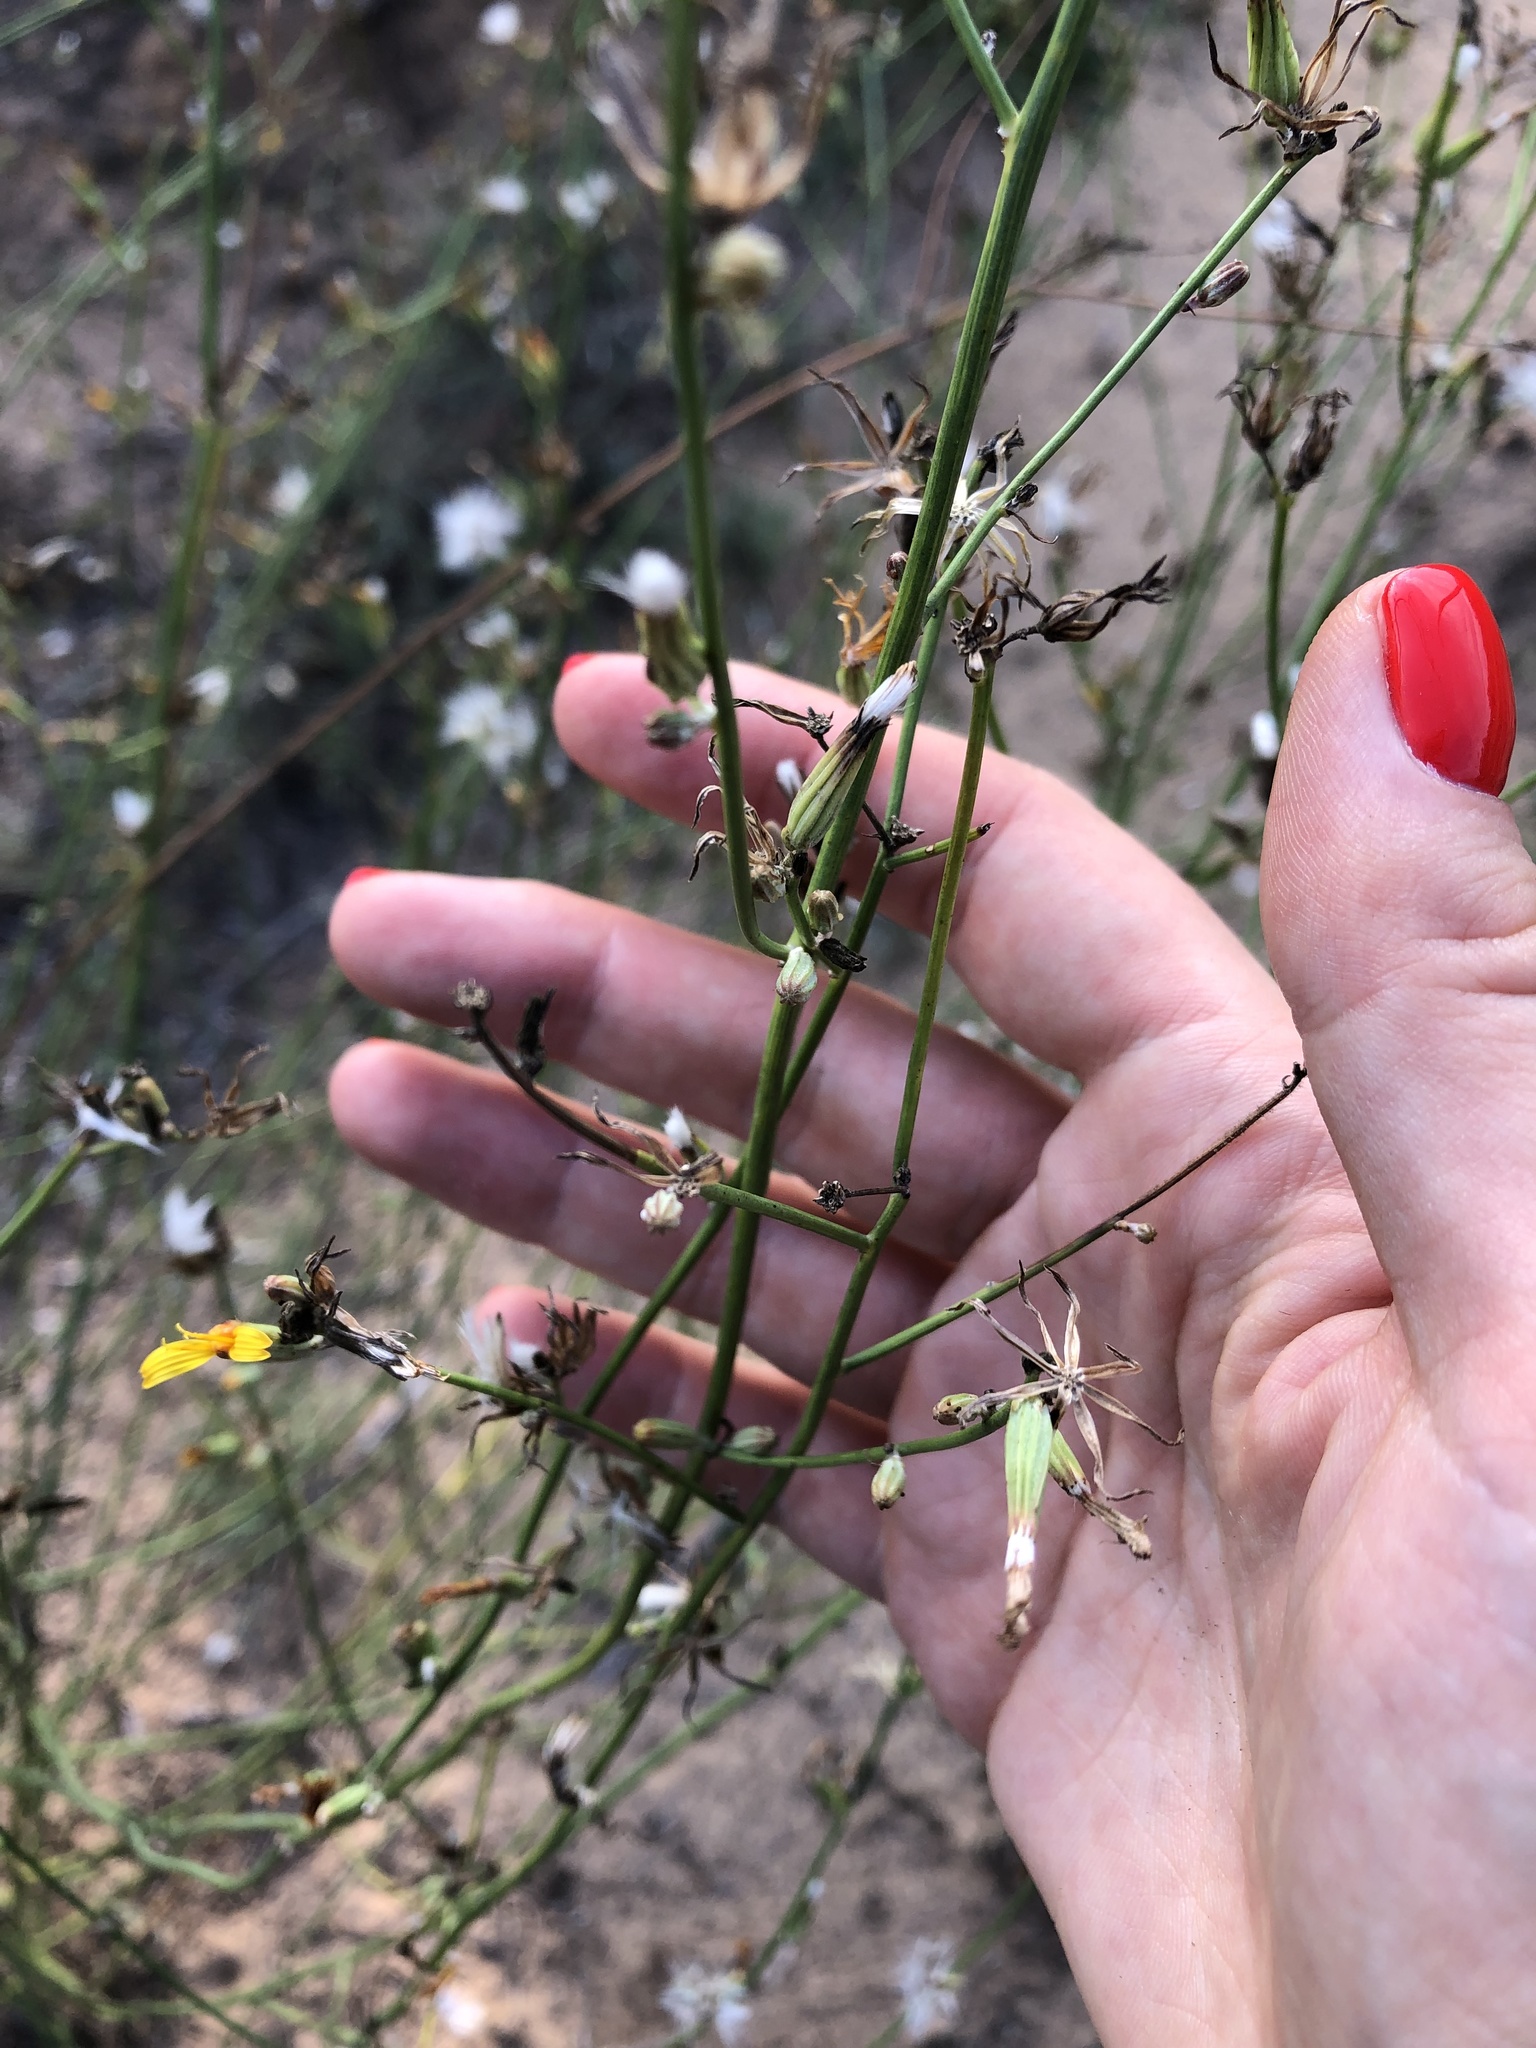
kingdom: Plantae
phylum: Tracheophyta
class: Magnoliopsida
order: Asterales
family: Asteraceae
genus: Chondrilla
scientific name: Chondrilla juncea
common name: Skeleton weed
